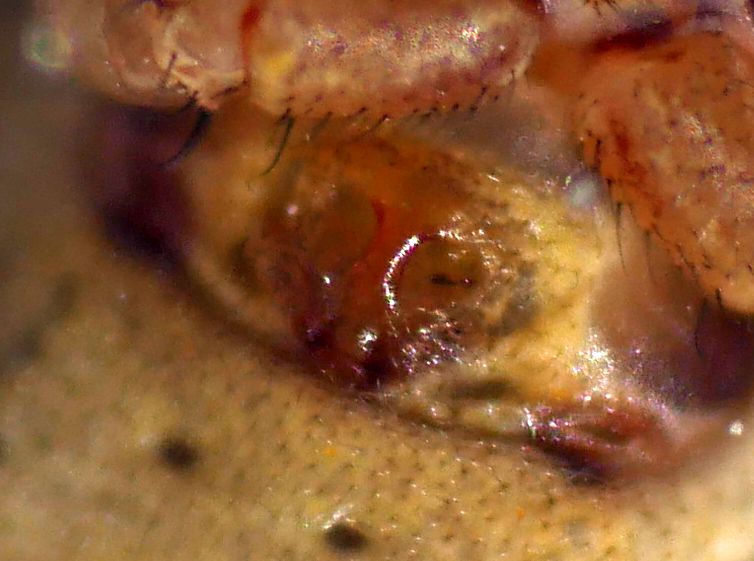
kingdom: Animalia
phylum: Arthropoda
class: Arachnida
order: Araneae
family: Thomisidae
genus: Xysticus
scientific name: Xysticus cristatus
